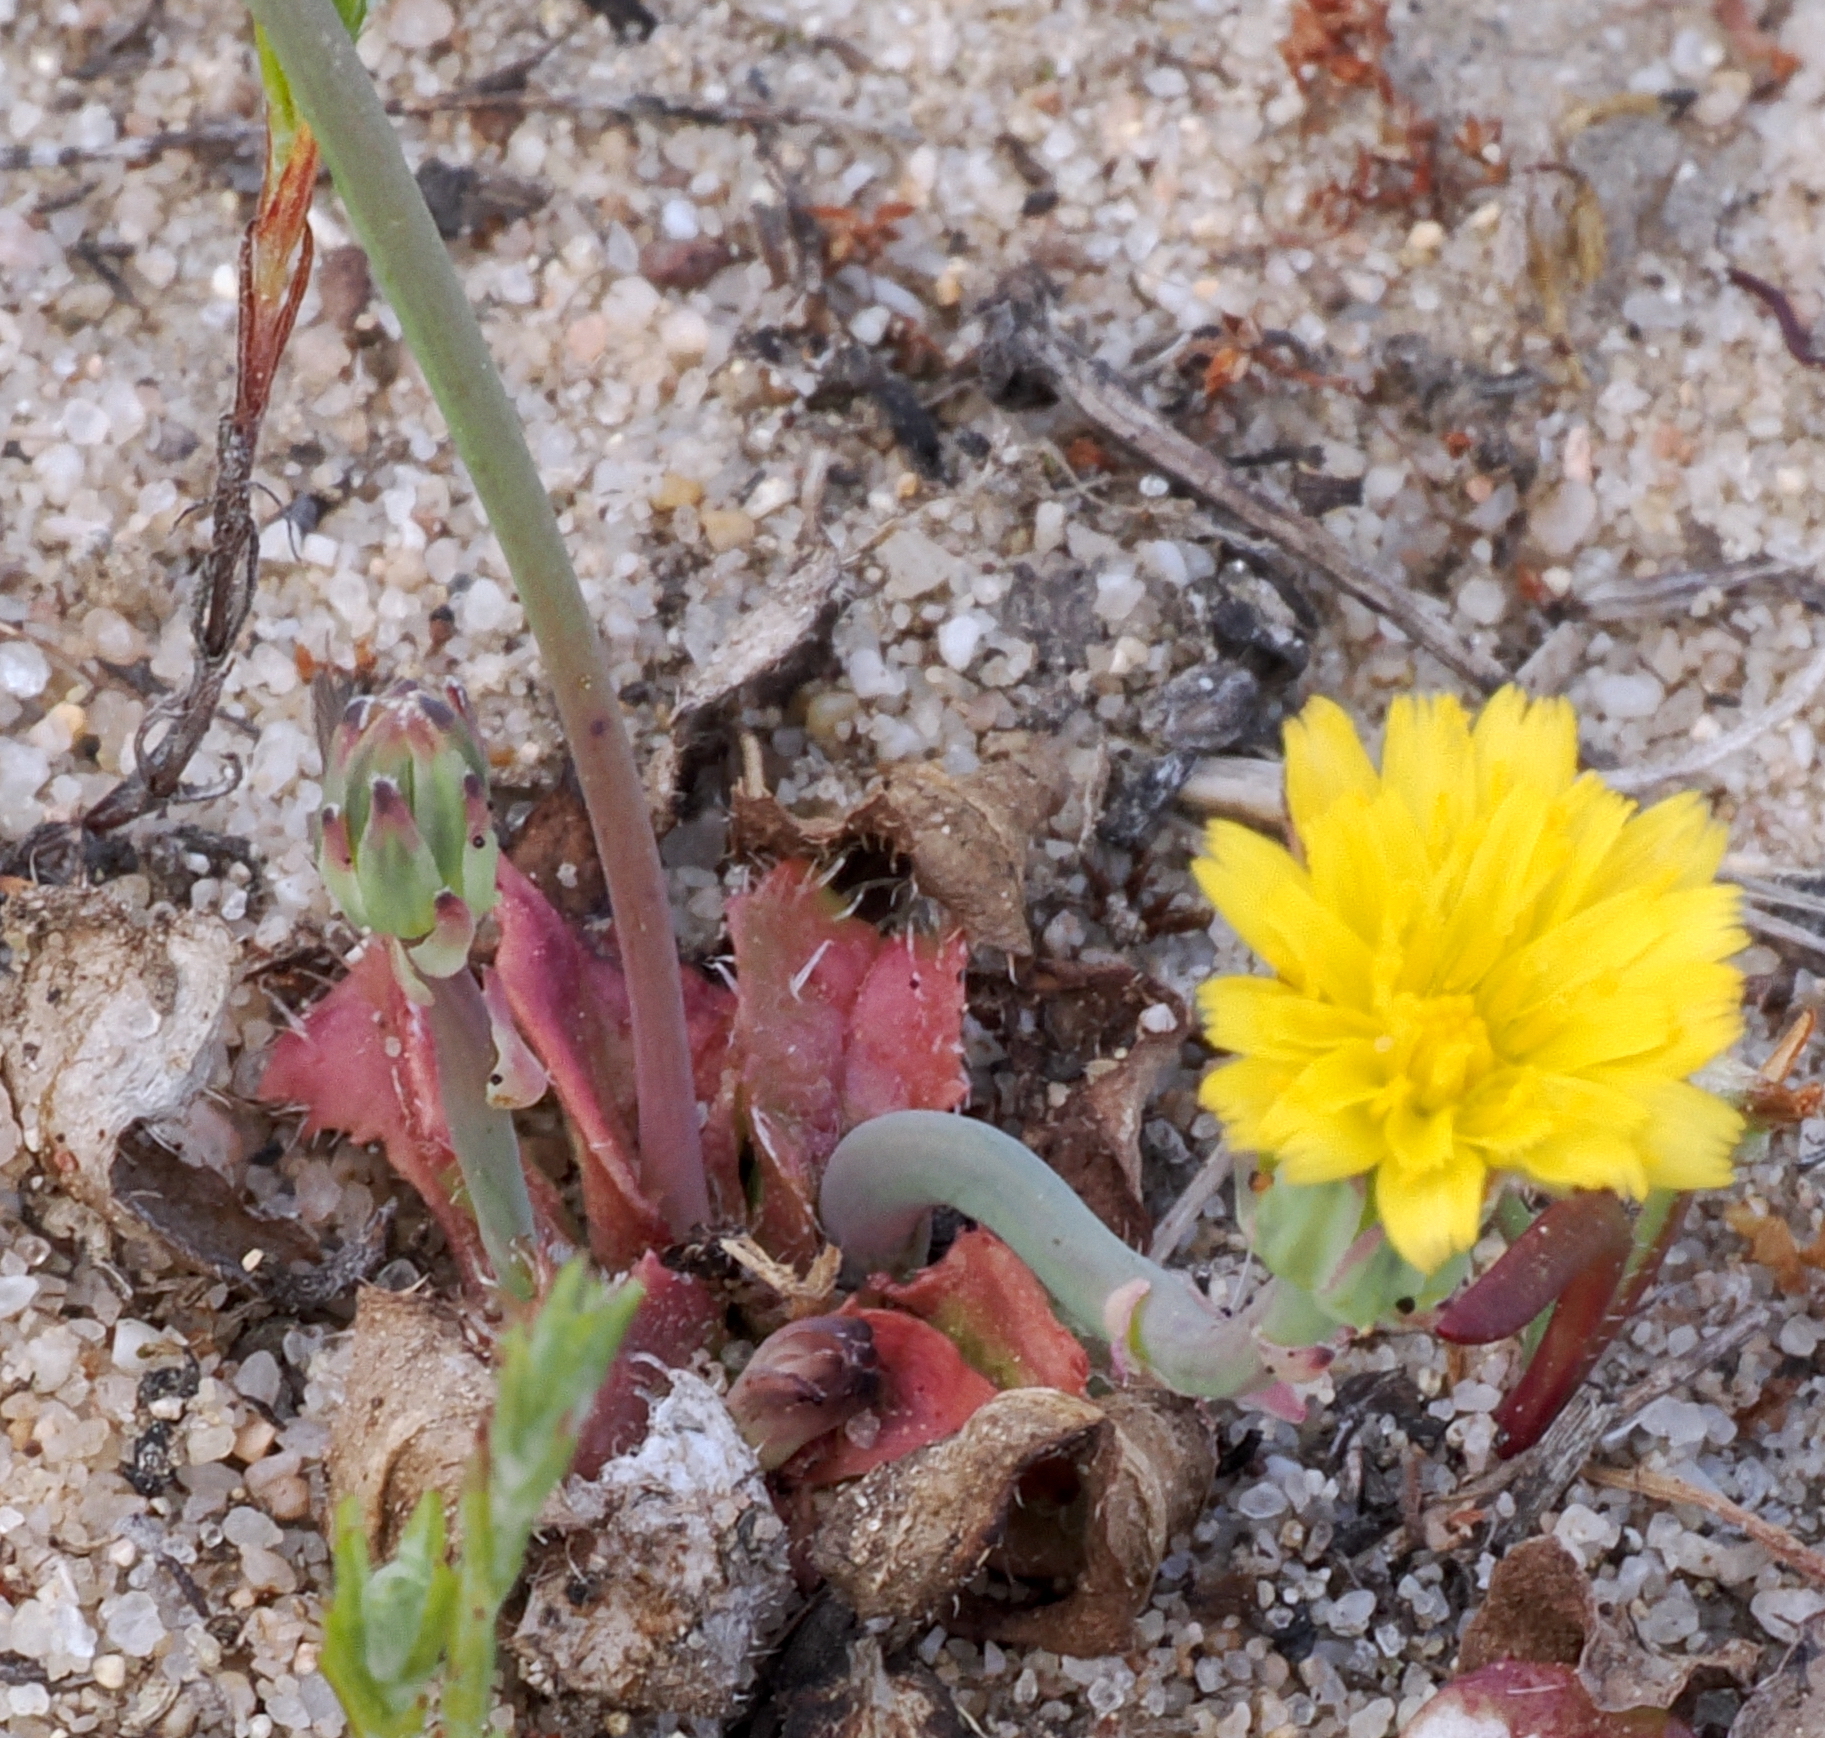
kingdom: Plantae
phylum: Tracheophyta
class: Magnoliopsida
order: Asterales
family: Asteraceae
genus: Hypochaeris
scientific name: Hypochaeris glabra
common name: Smooth catsear
